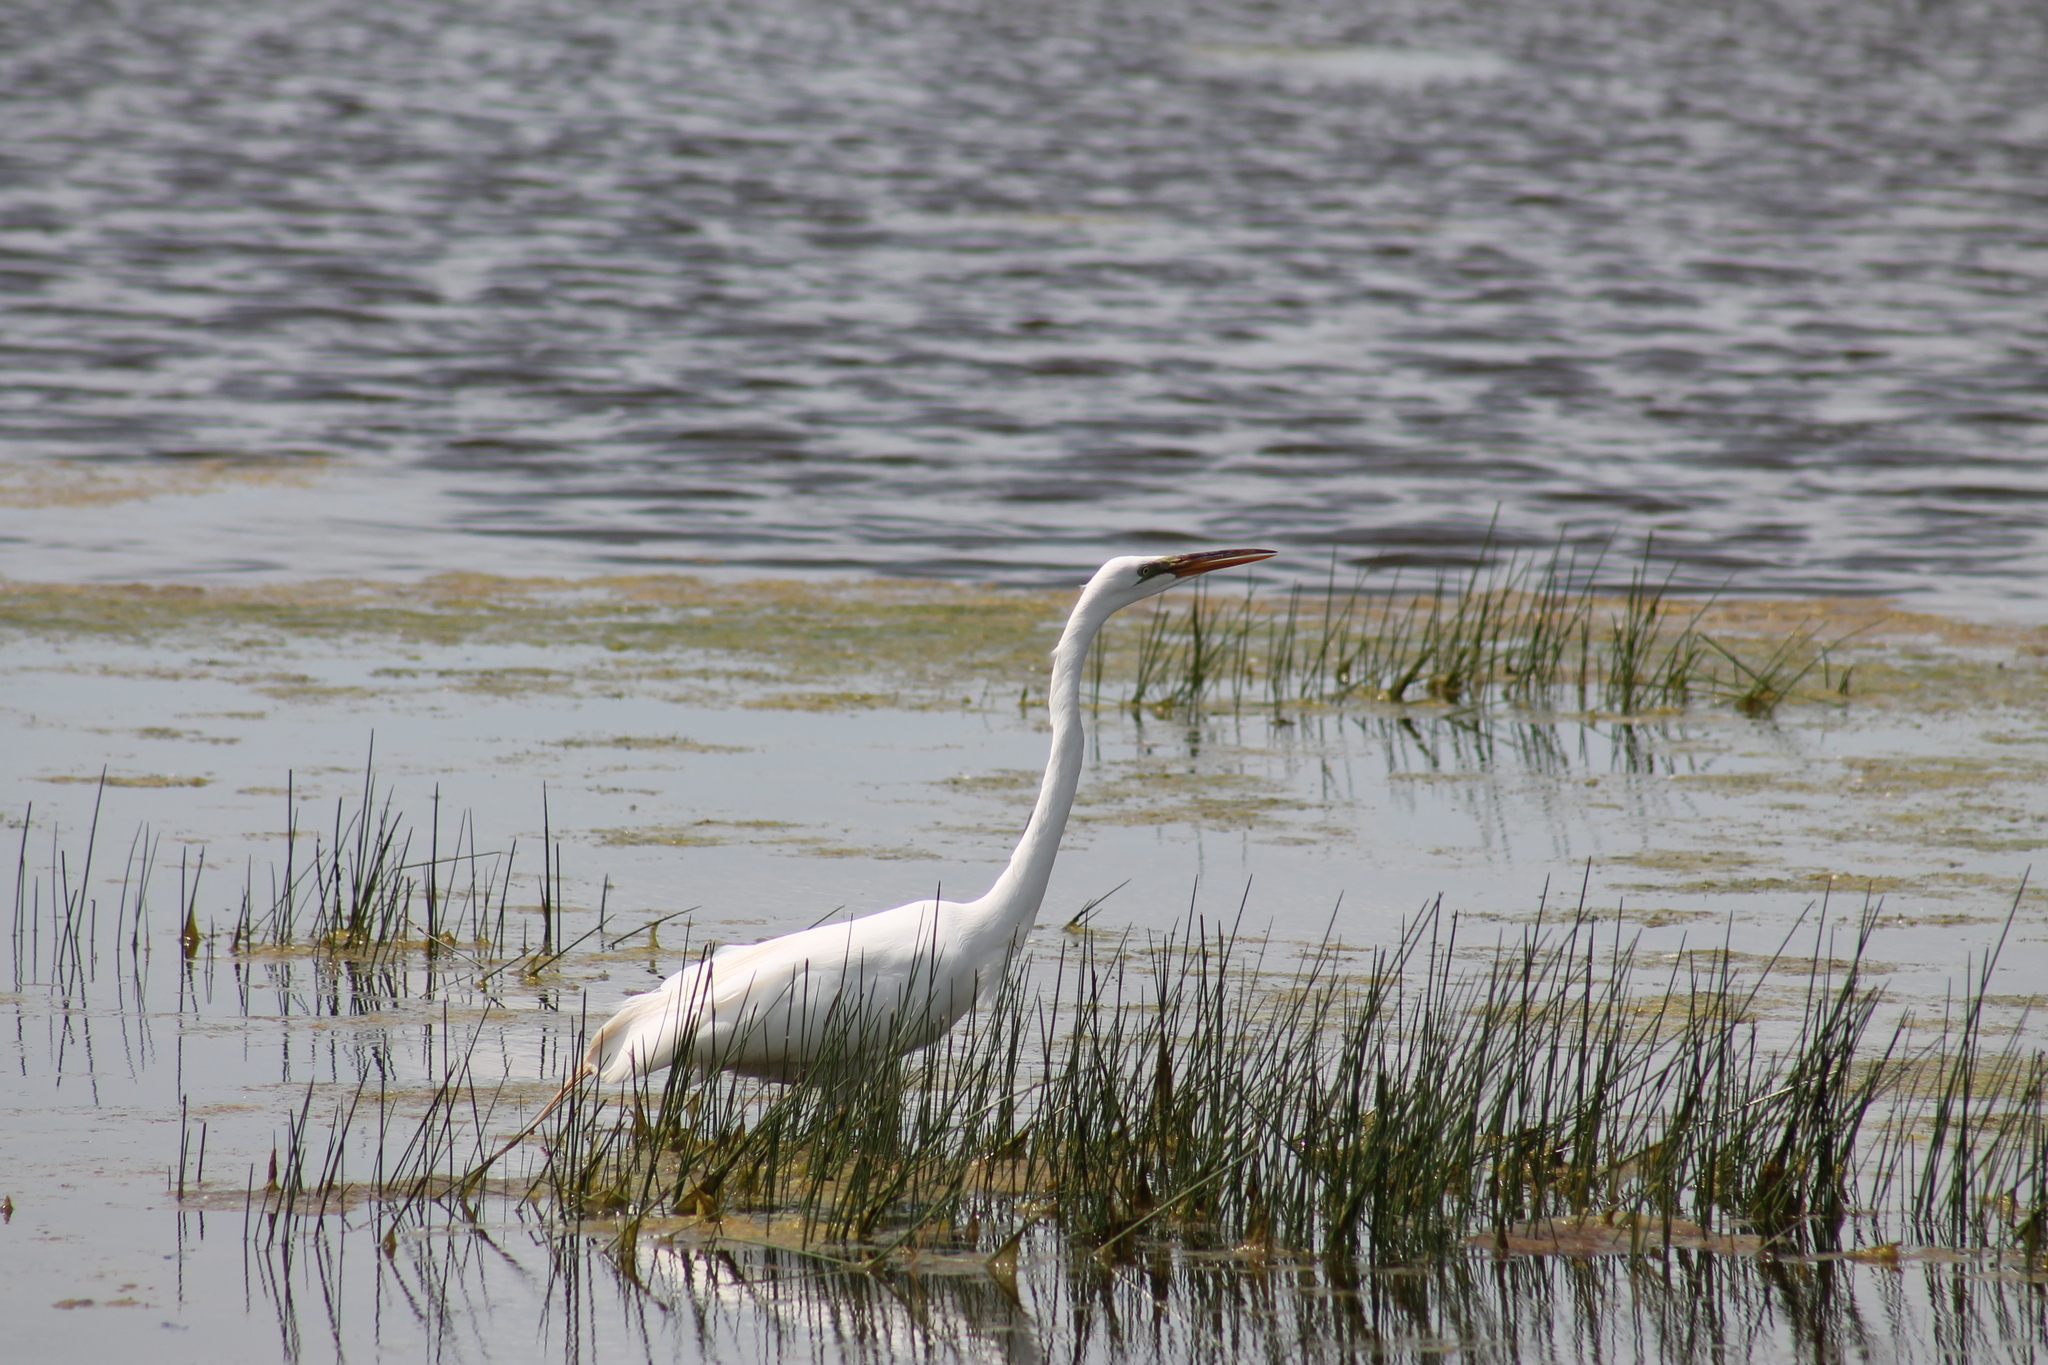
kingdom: Animalia
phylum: Chordata
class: Aves
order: Pelecaniformes
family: Ardeidae
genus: Ardea
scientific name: Ardea alba
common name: Great egret
